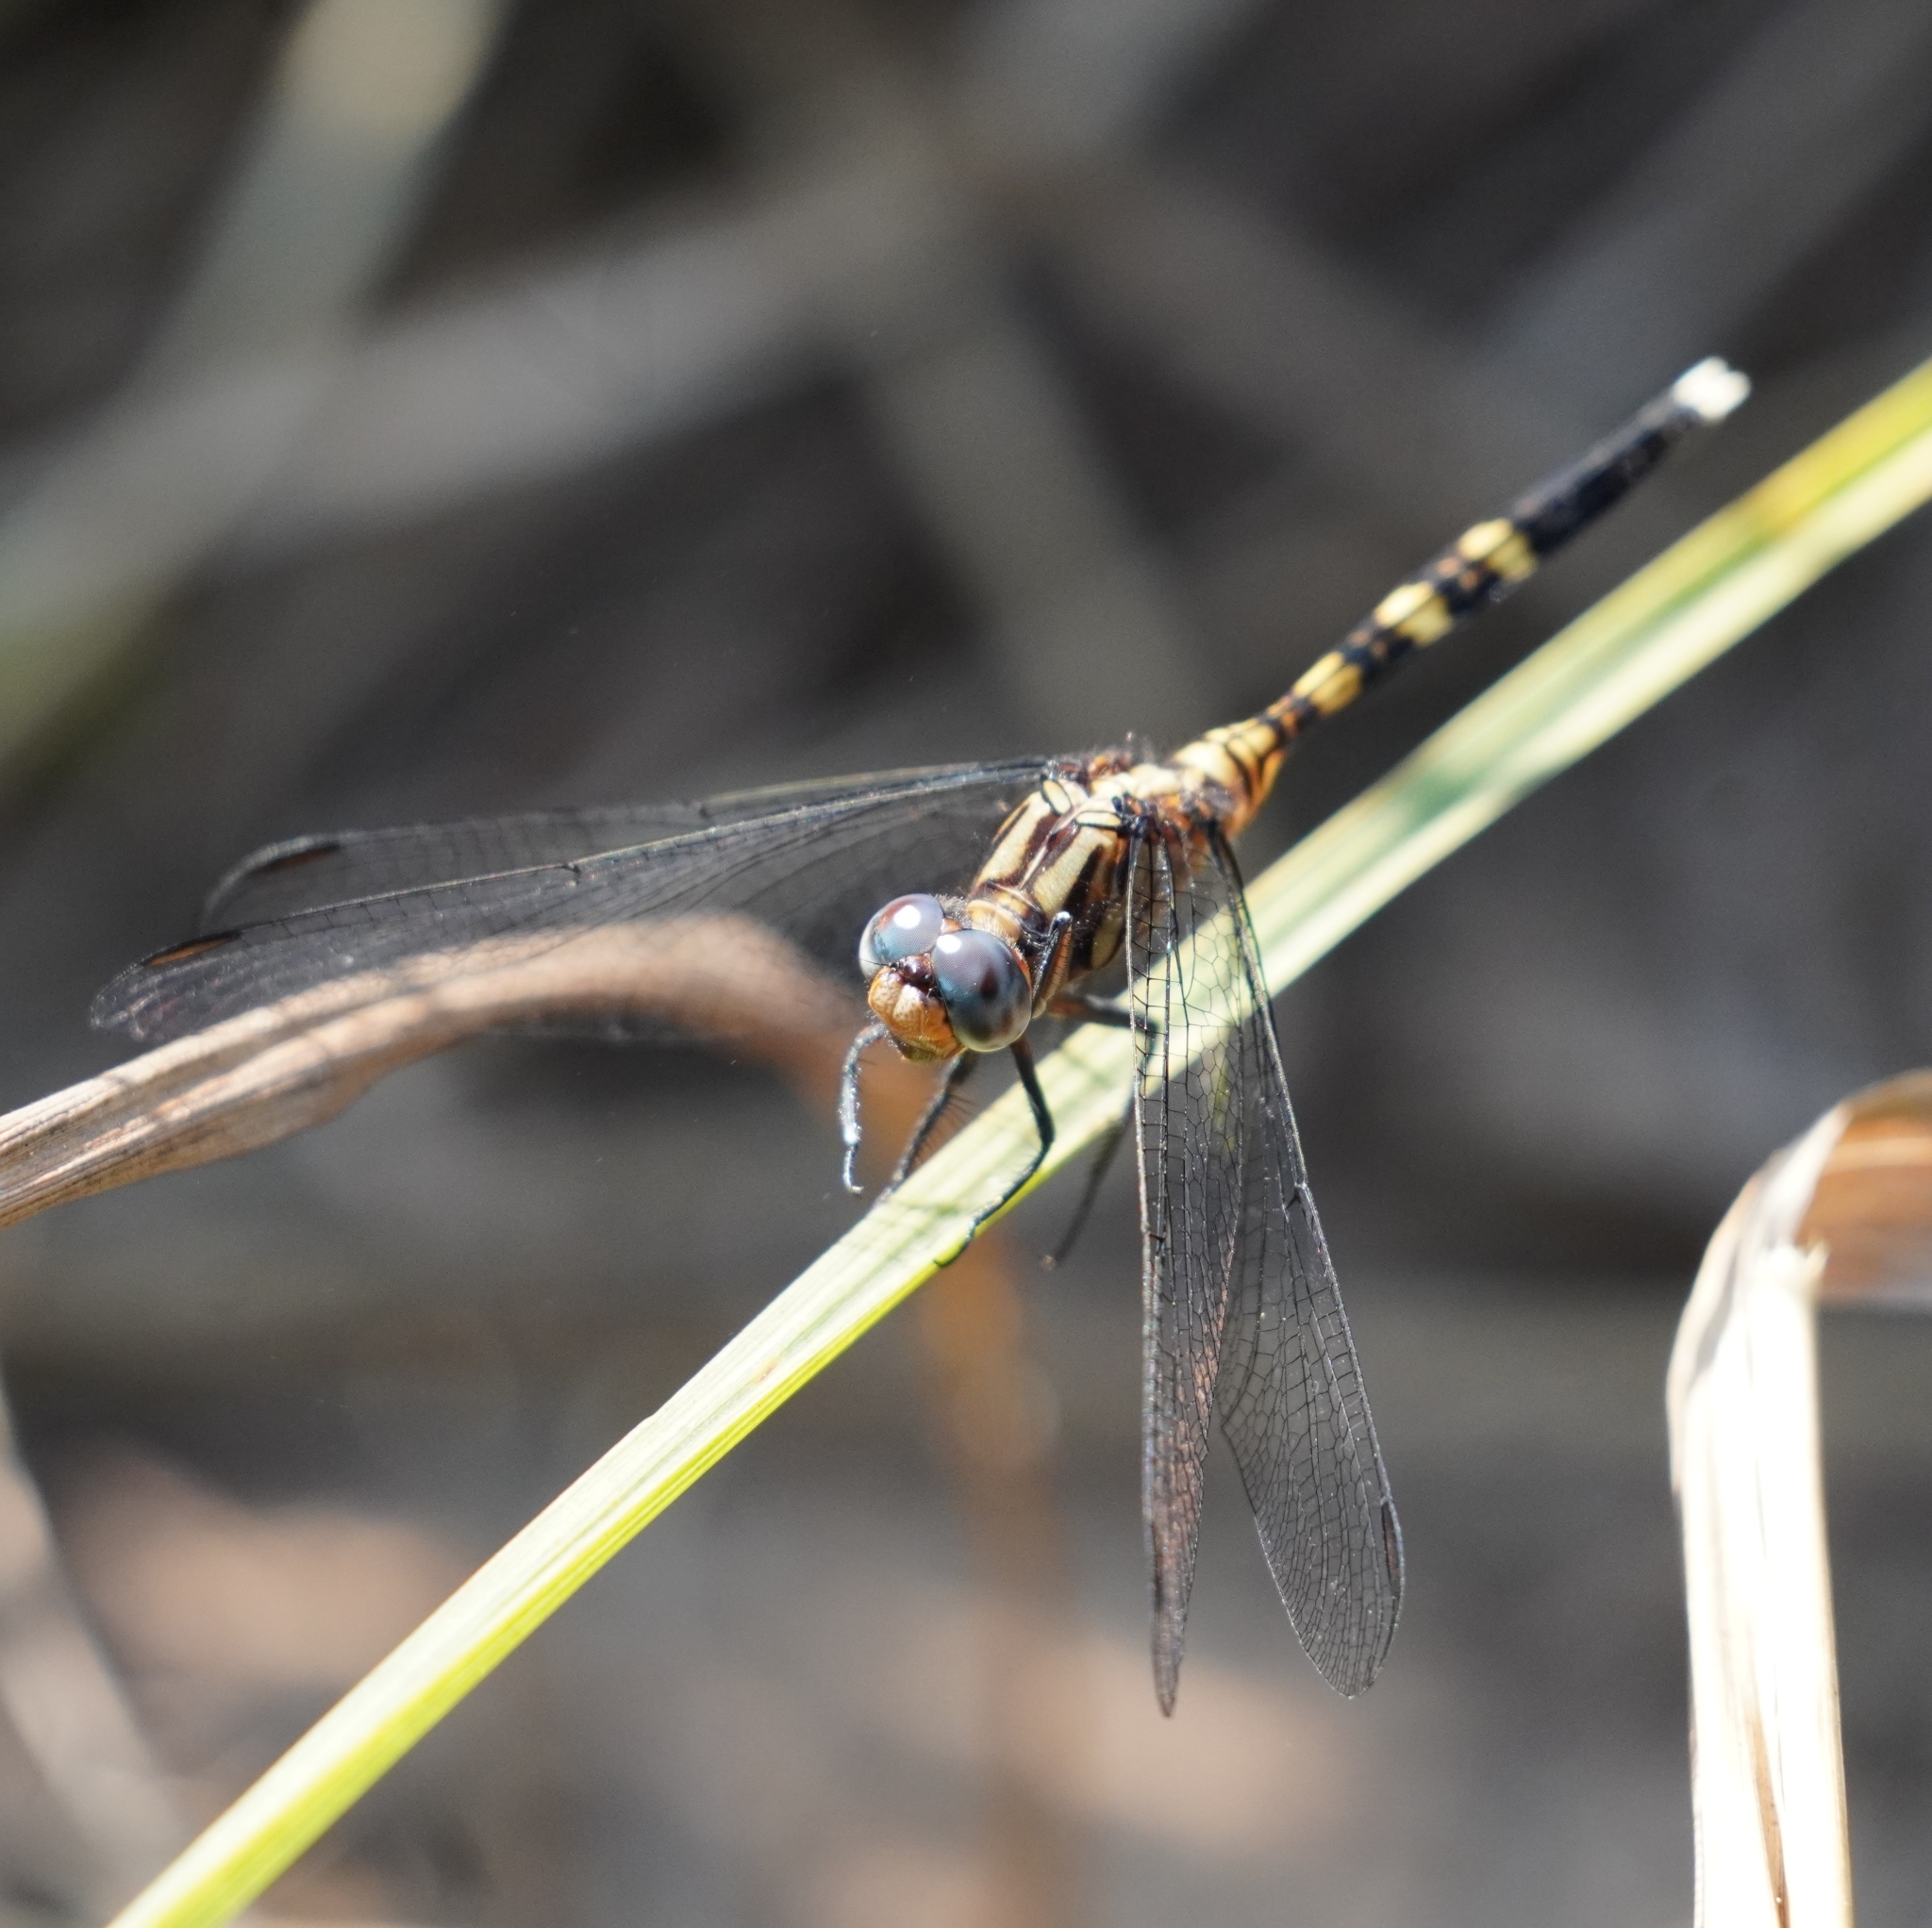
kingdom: Animalia
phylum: Arthropoda
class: Insecta
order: Odonata
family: Libellulidae
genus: Orthetrum
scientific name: Orthetrum julia
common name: Julia skimmer
